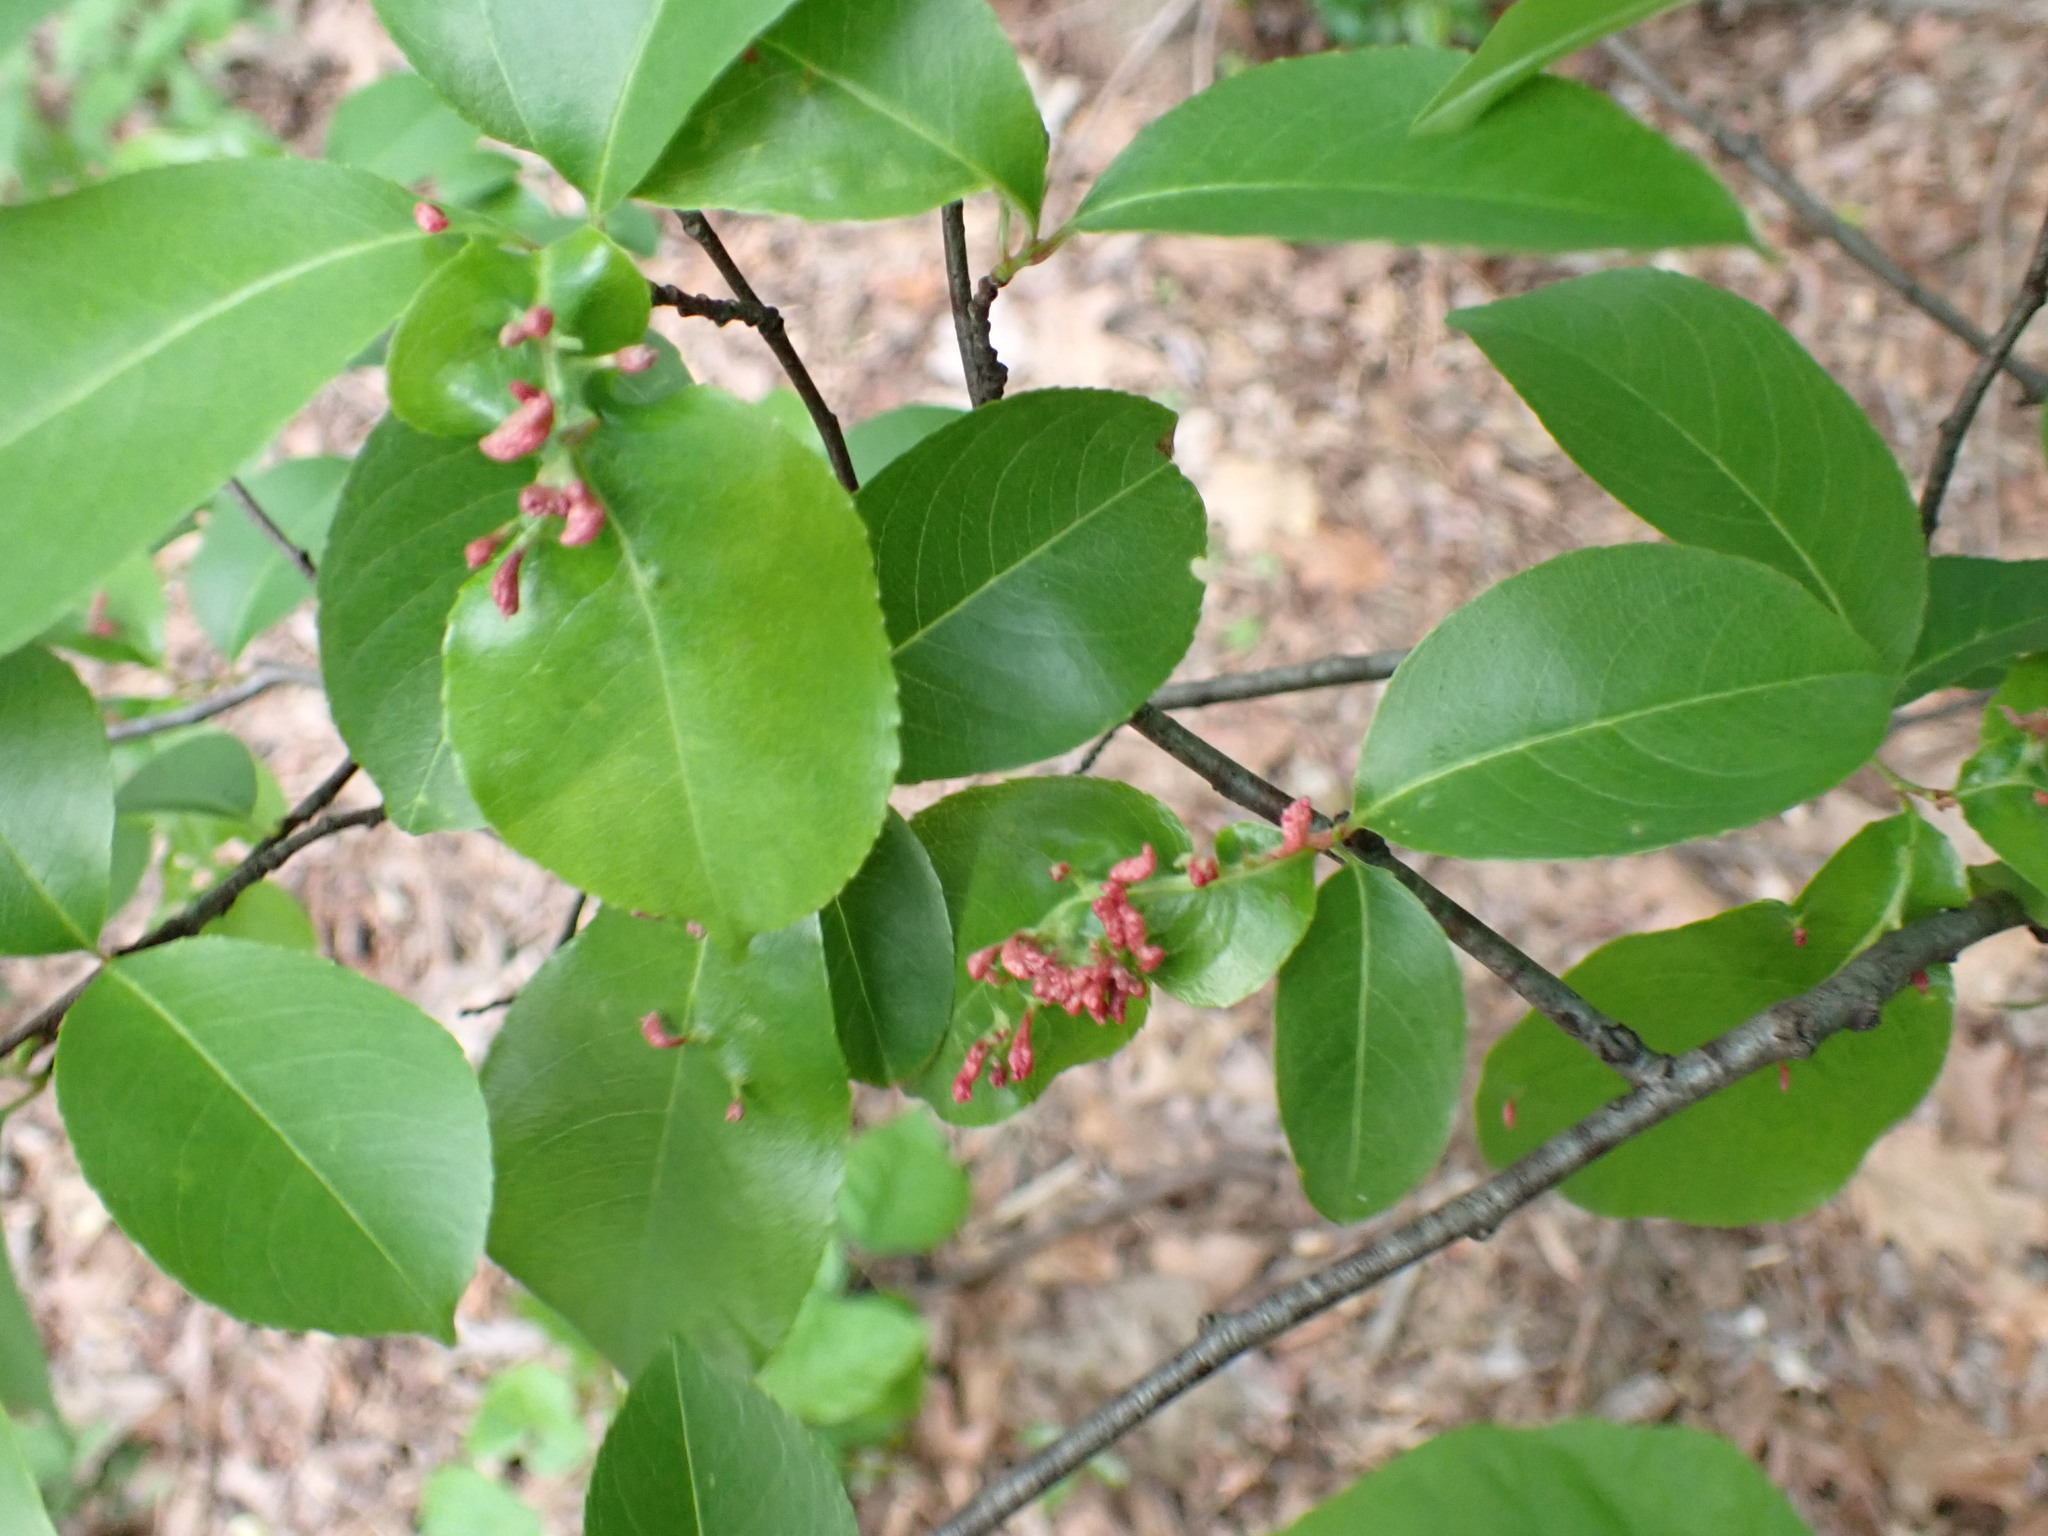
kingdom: Animalia
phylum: Arthropoda
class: Arachnida
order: Trombidiformes
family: Eriophyidae
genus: Eriophyes
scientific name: Eriophyes
